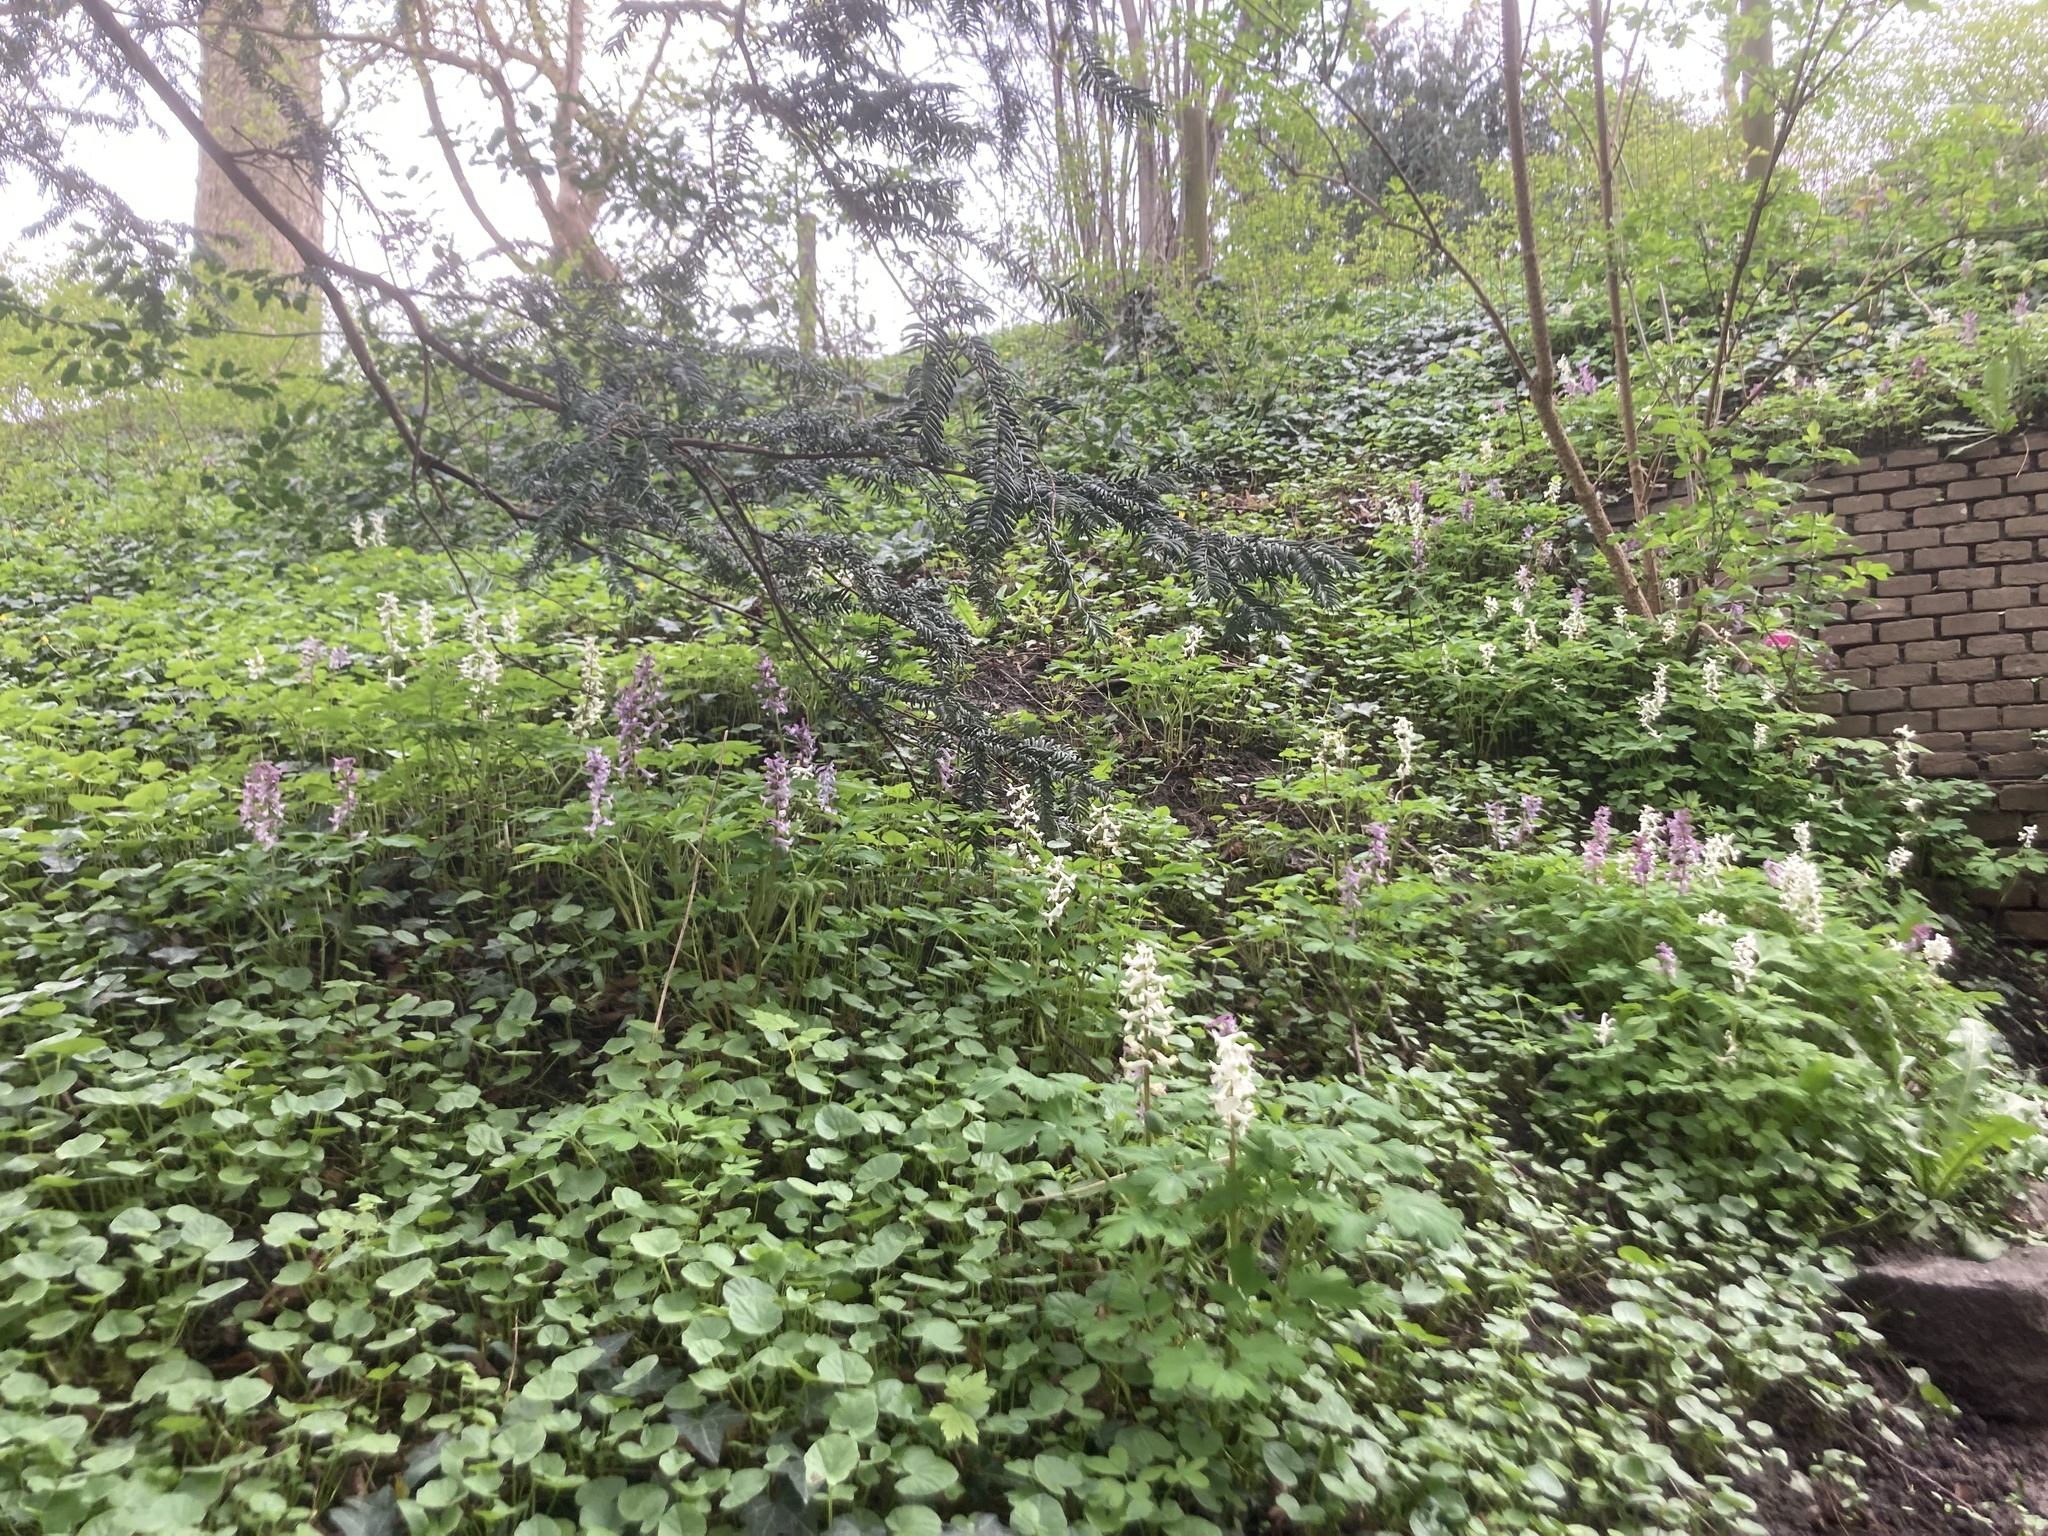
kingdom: Plantae
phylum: Tracheophyta
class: Magnoliopsida
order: Ranunculales
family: Papaveraceae
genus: Corydalis
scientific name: Corydalis cava
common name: Hollowroot
